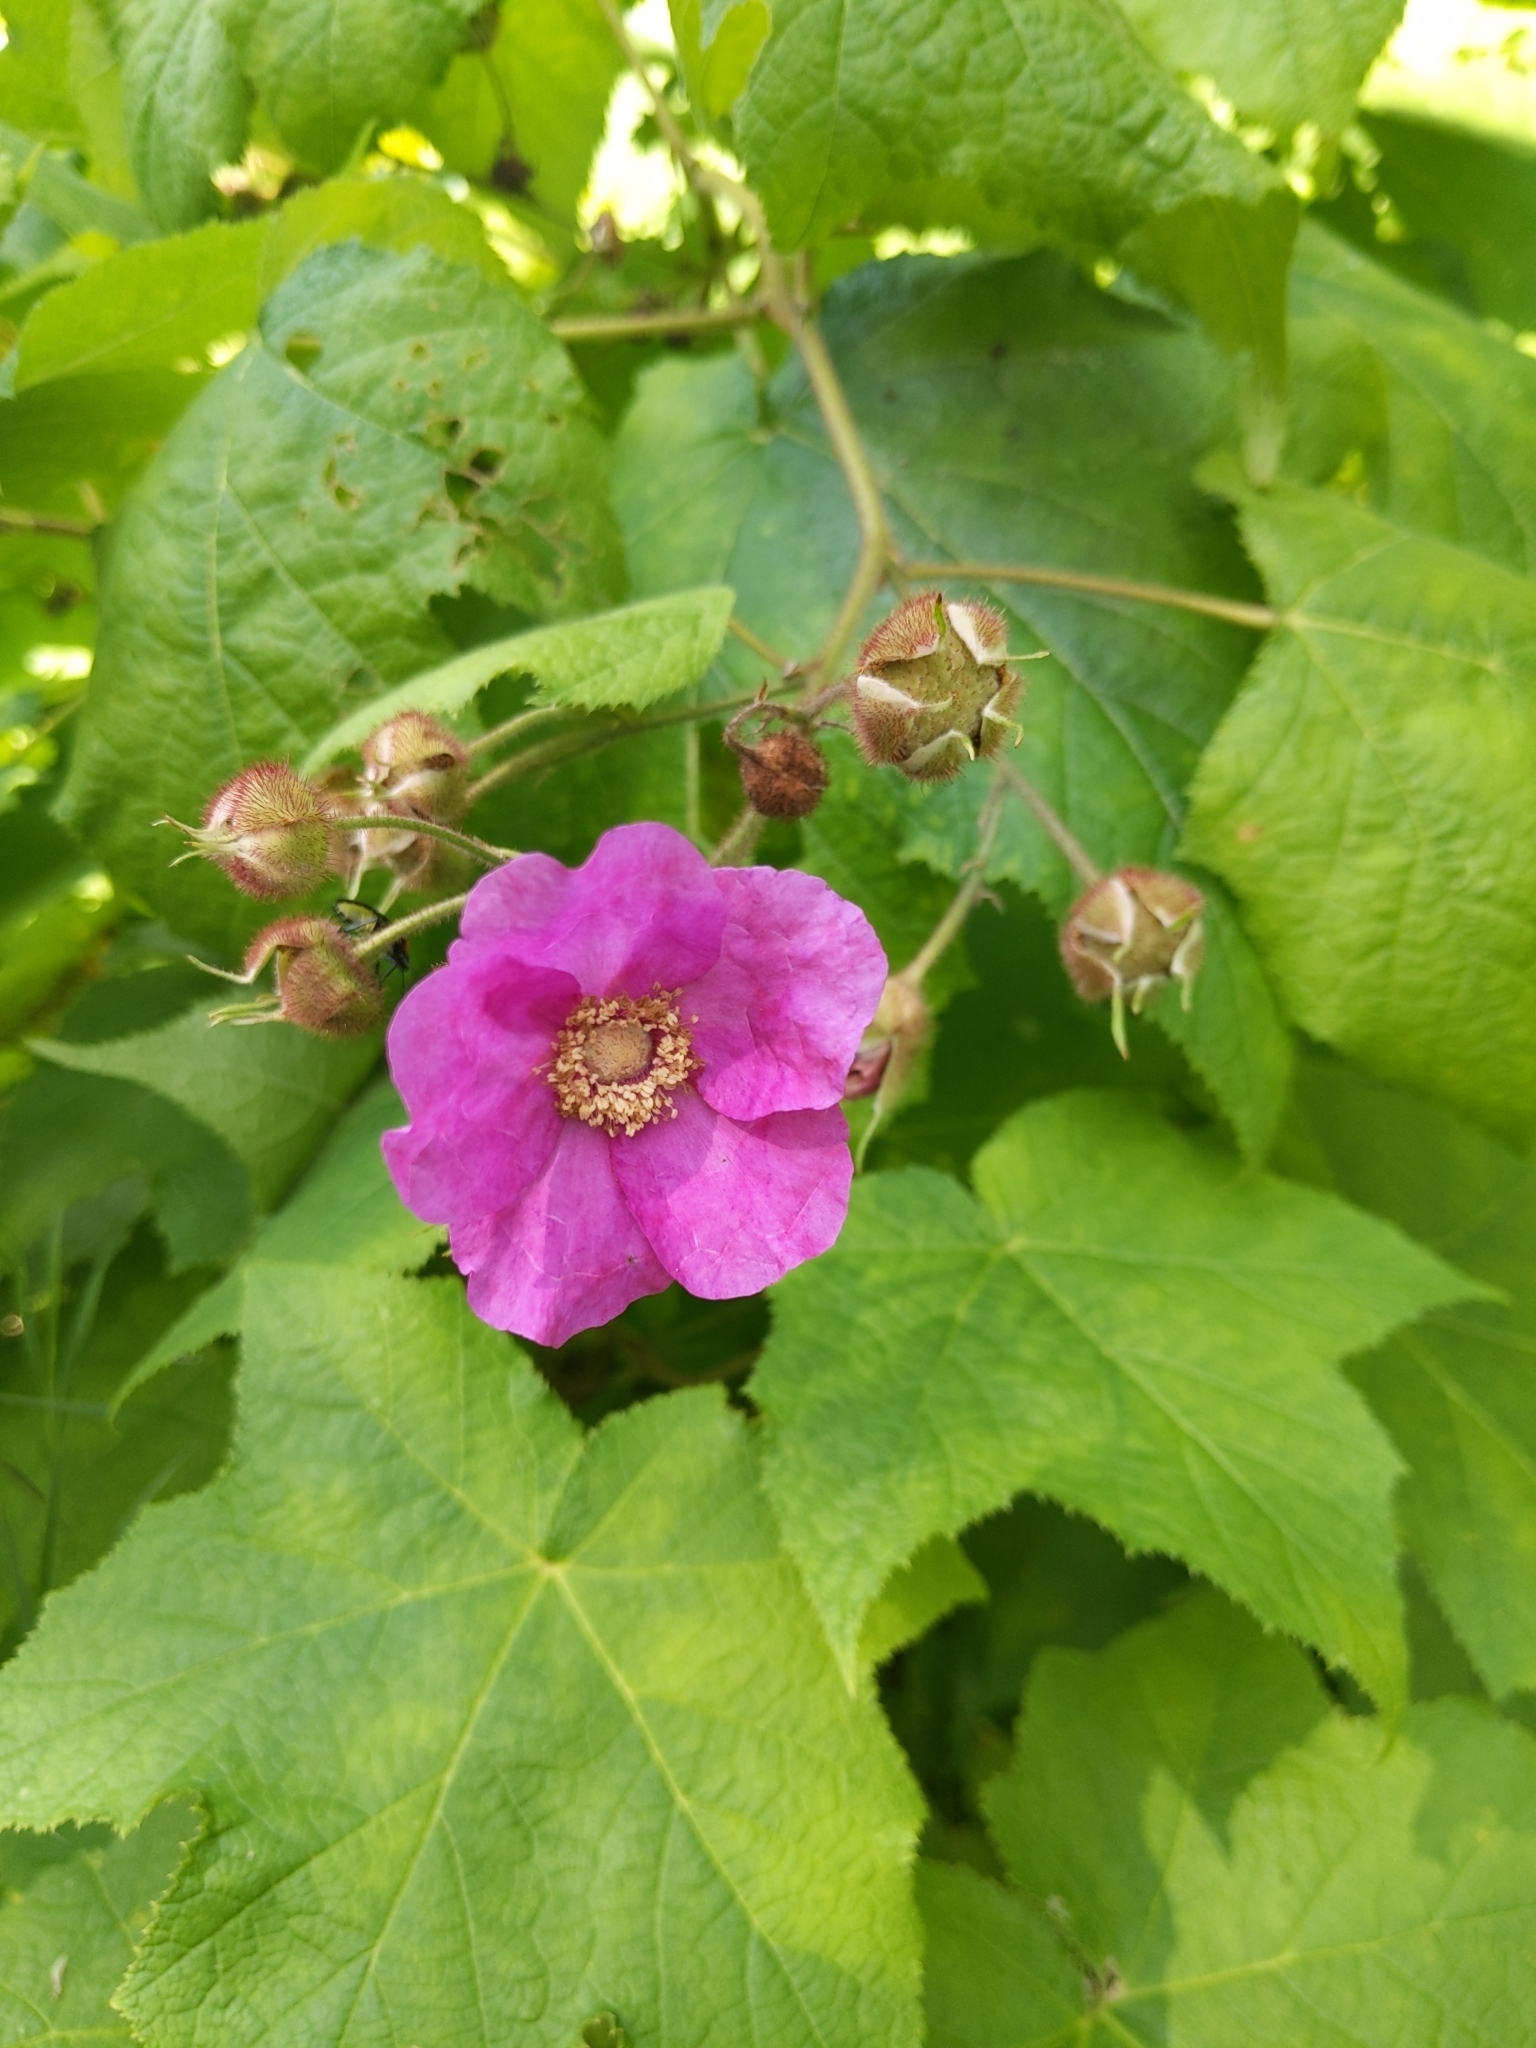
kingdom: Plantae
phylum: Tracheophyta
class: Magnoliopsida
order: Rosales
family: Rosaceae
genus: Rubus
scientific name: Rubus odoratus
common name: Purple-flowered raspberry
